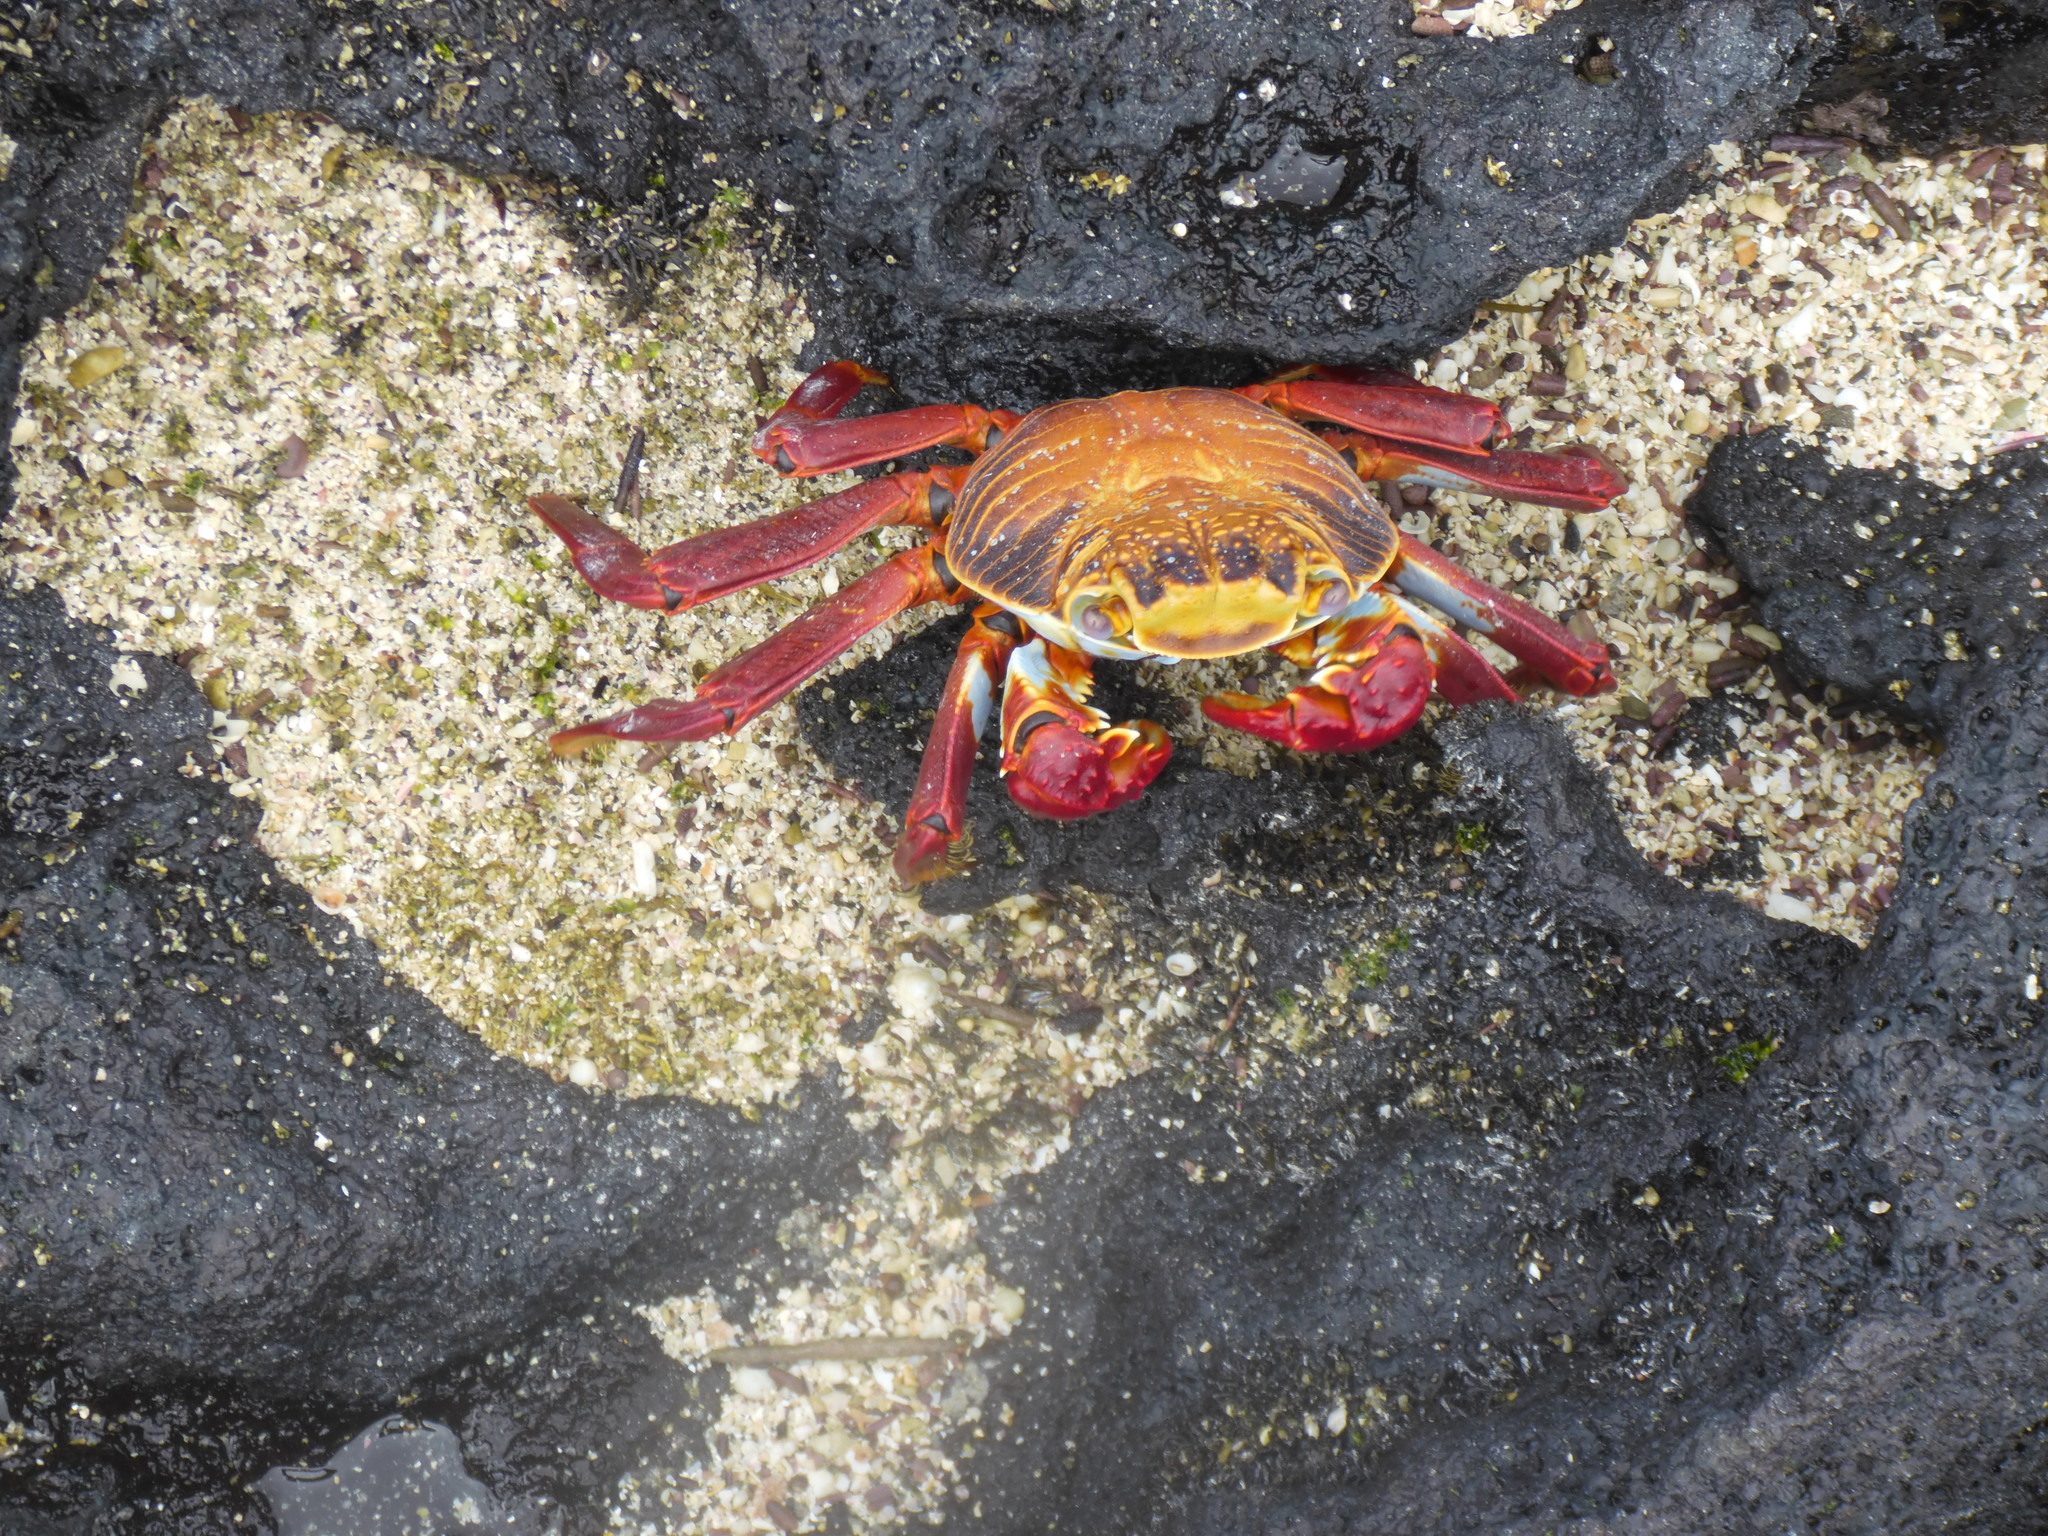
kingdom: Animalia
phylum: Arthropoda
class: Malacostraca
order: Decapoda
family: Grapsidae
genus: Grapsus
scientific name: Grapsus grapsus
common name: Sally lightfoot
